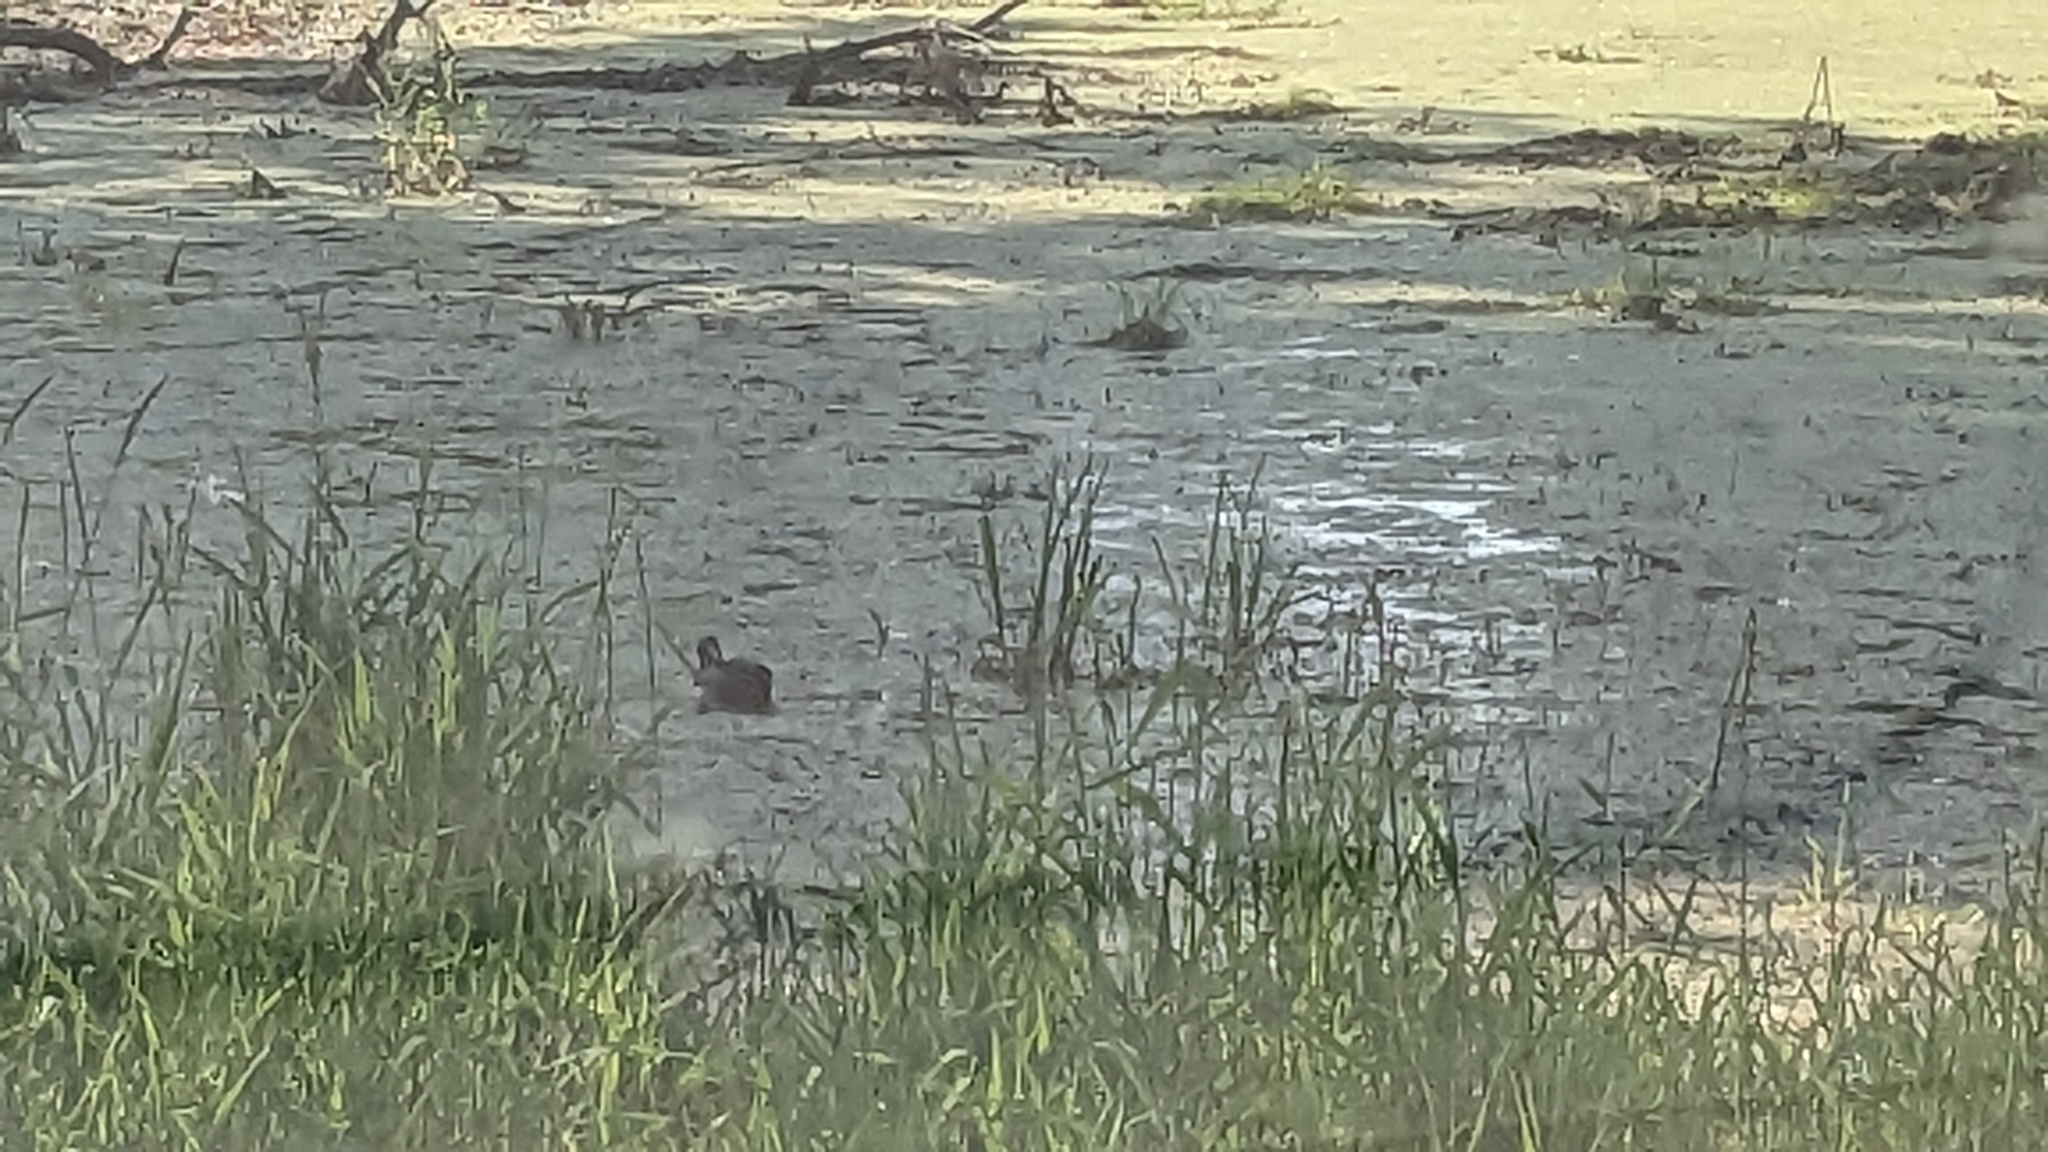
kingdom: Animalia
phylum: Chordata
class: Aves
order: Anseriformes
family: Anatidae
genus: Aix
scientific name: Aix sponsa
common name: Wood duck
